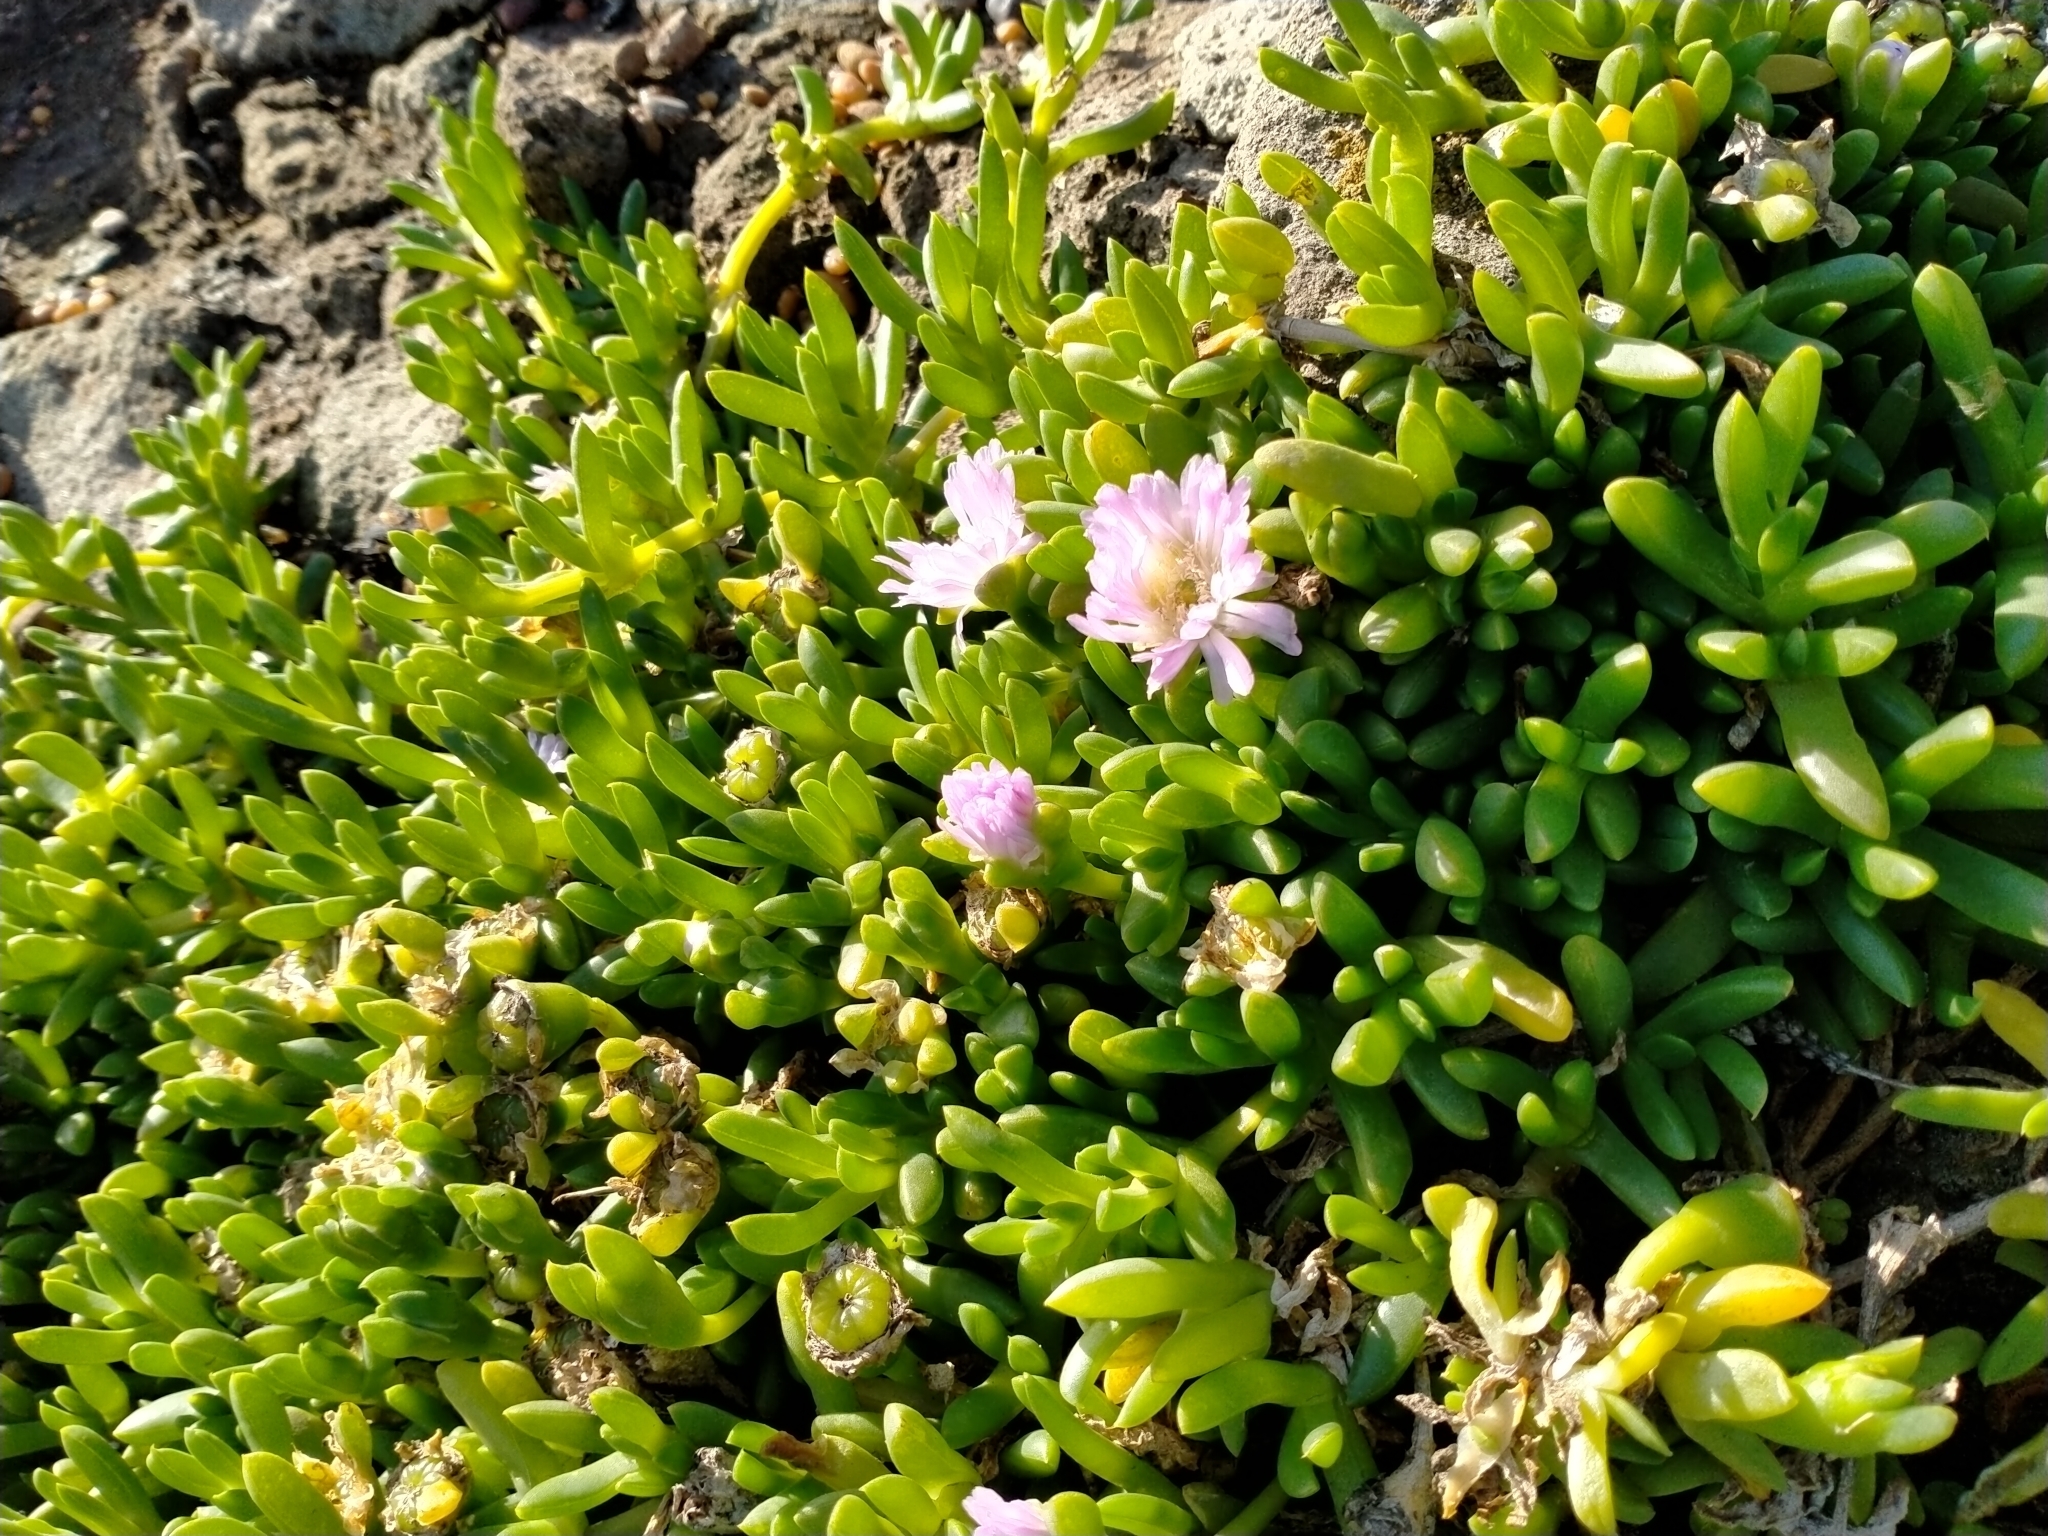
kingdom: Plantae
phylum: Tracheophyta
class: Magnoliopsida
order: Caryophyllales
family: Aizoaceae
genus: Disphyma
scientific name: Disphyma australe
